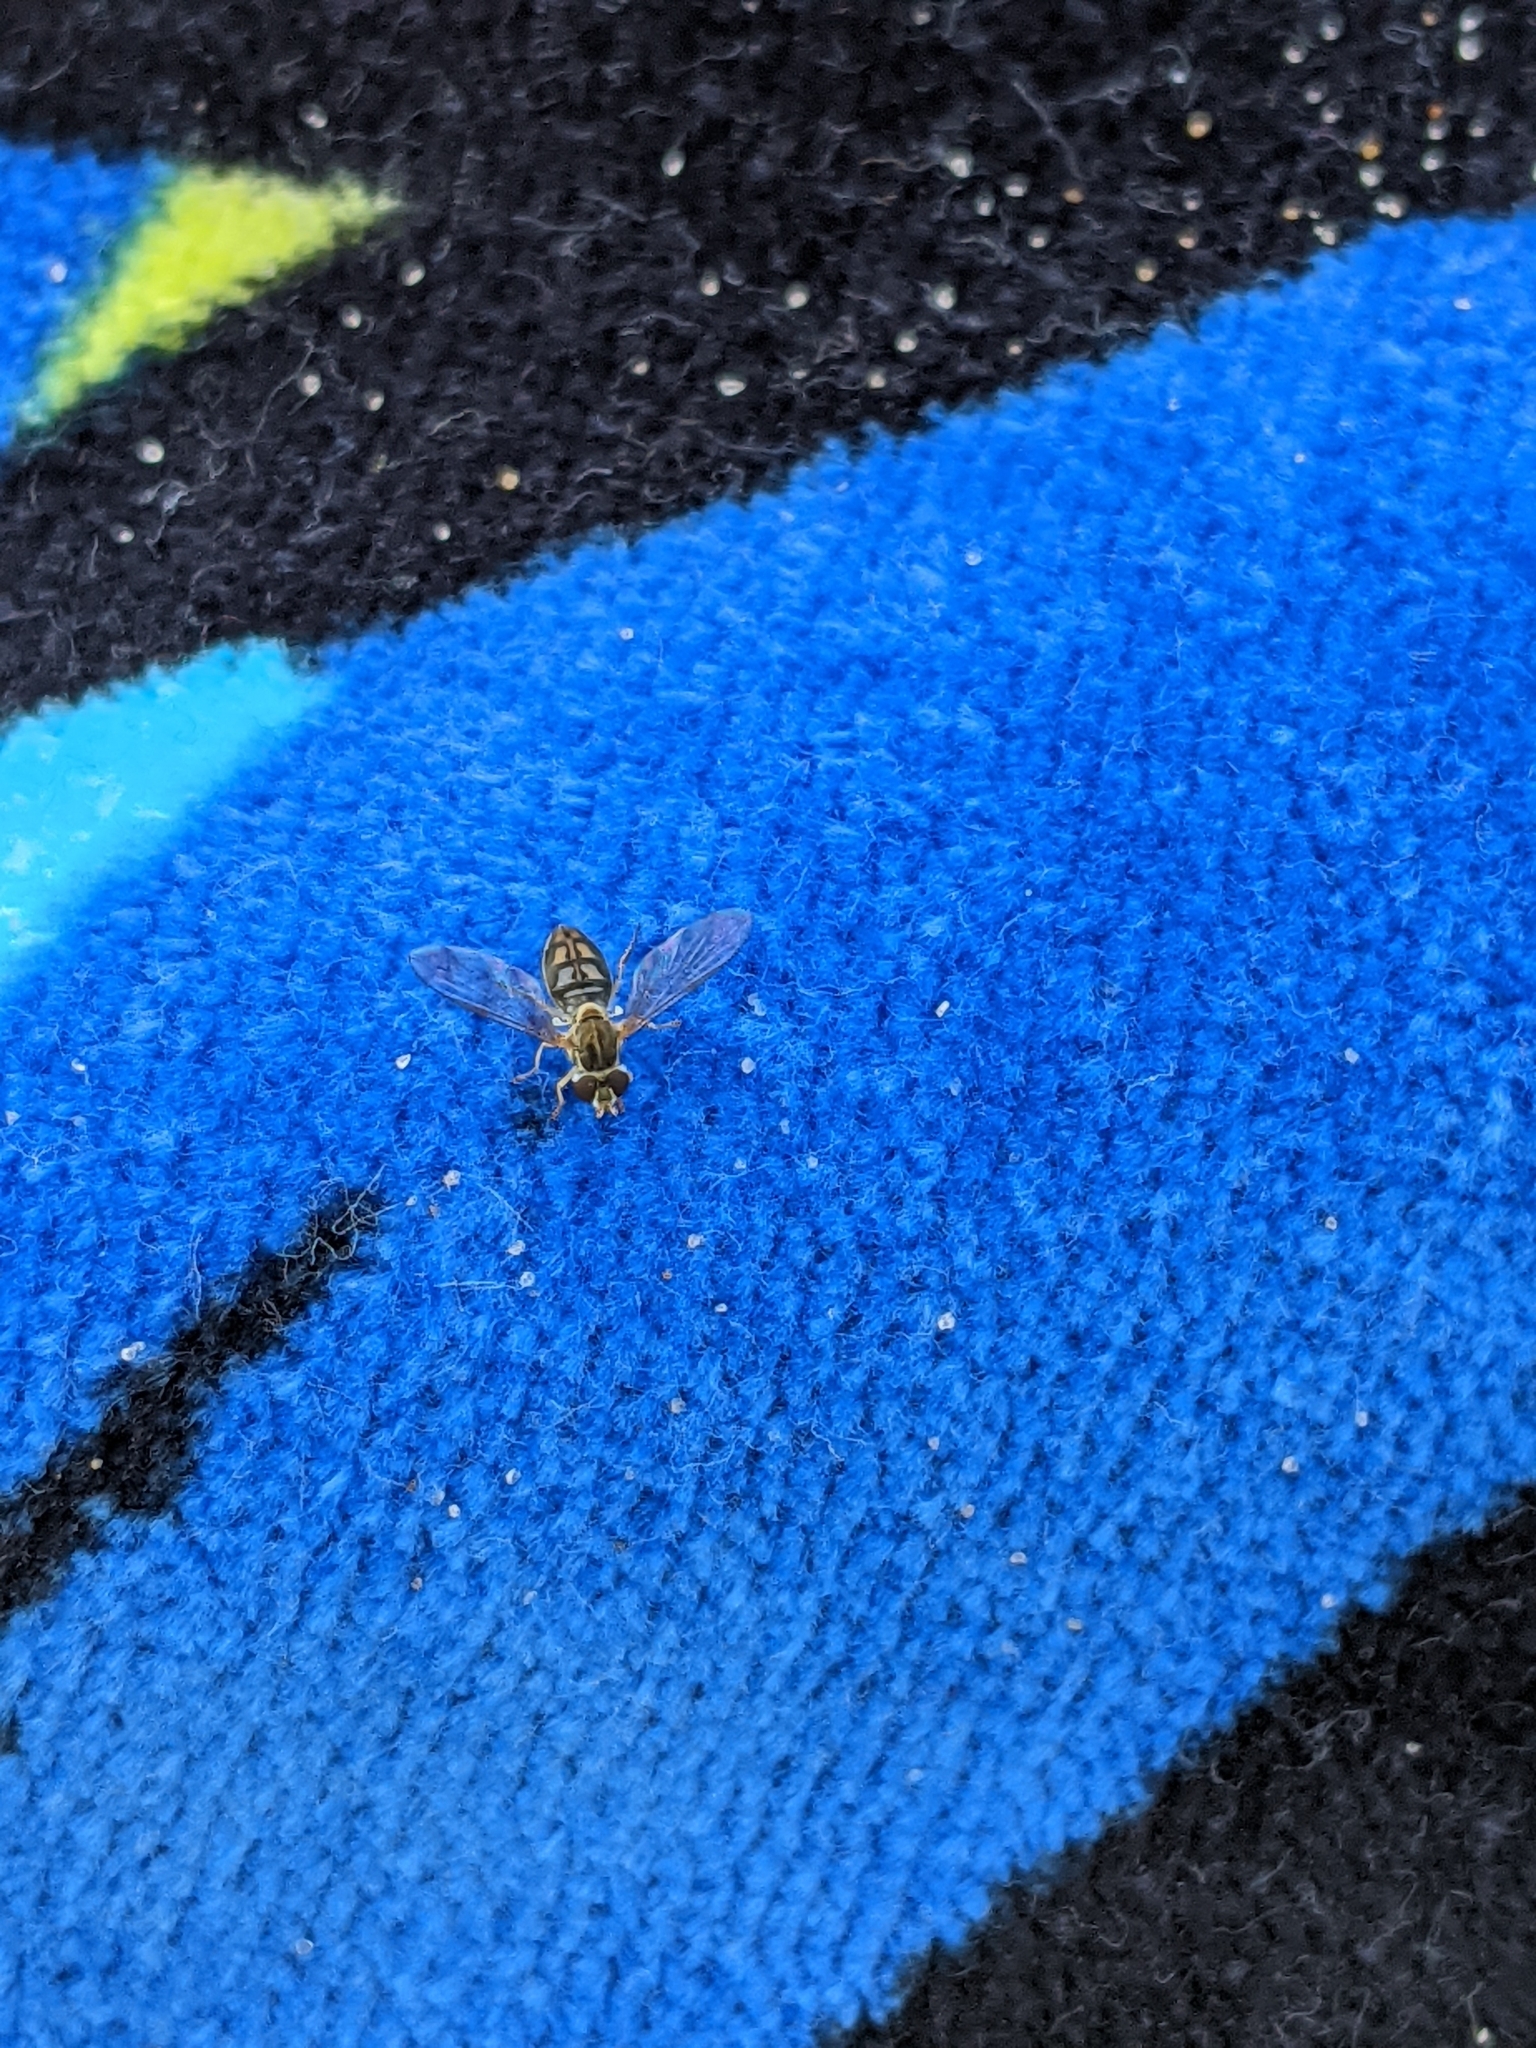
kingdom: Animalia
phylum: Arthropoda
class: Insecta
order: Diptera
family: Syrphidae
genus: Toxomerus
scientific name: Toxomerus marginatus
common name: Syrphid fly
